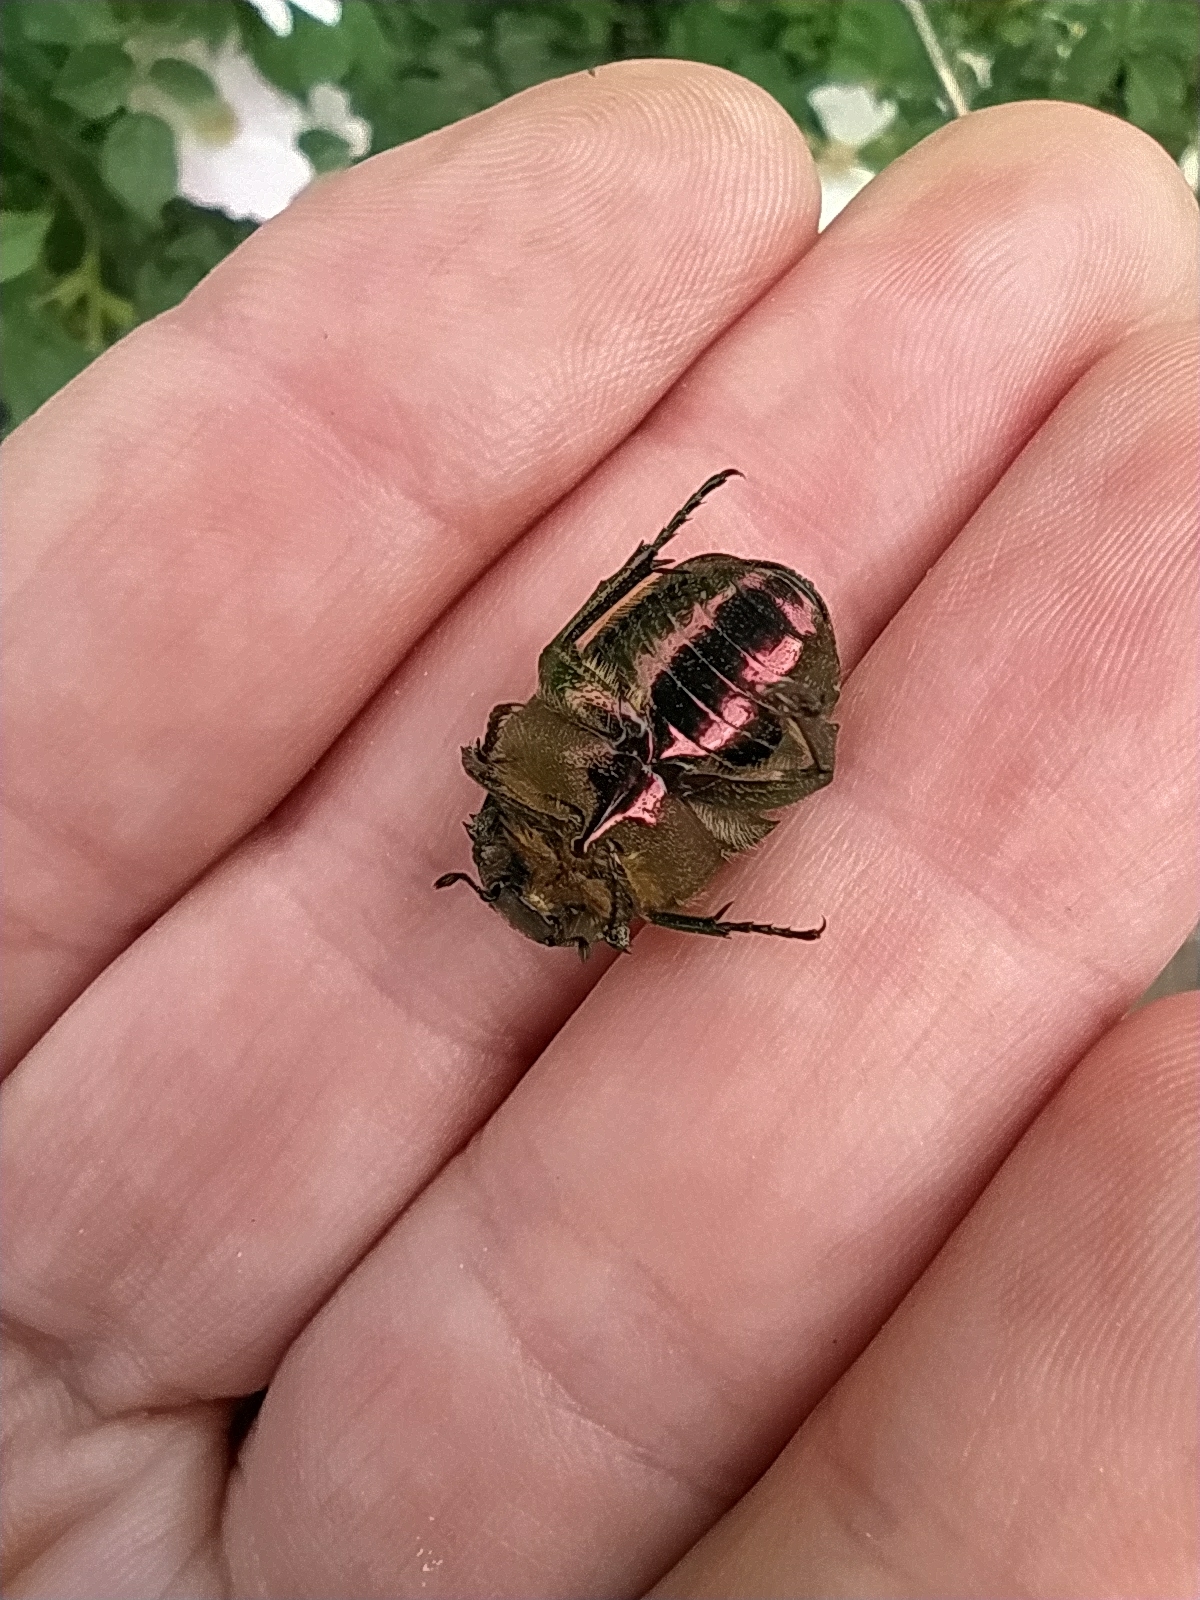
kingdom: Animalia
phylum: Arthropoda
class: Insecta
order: Coleoptera
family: Scarabaeidae
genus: Cetonia
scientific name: Cetonia aurata
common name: Rose chafer
